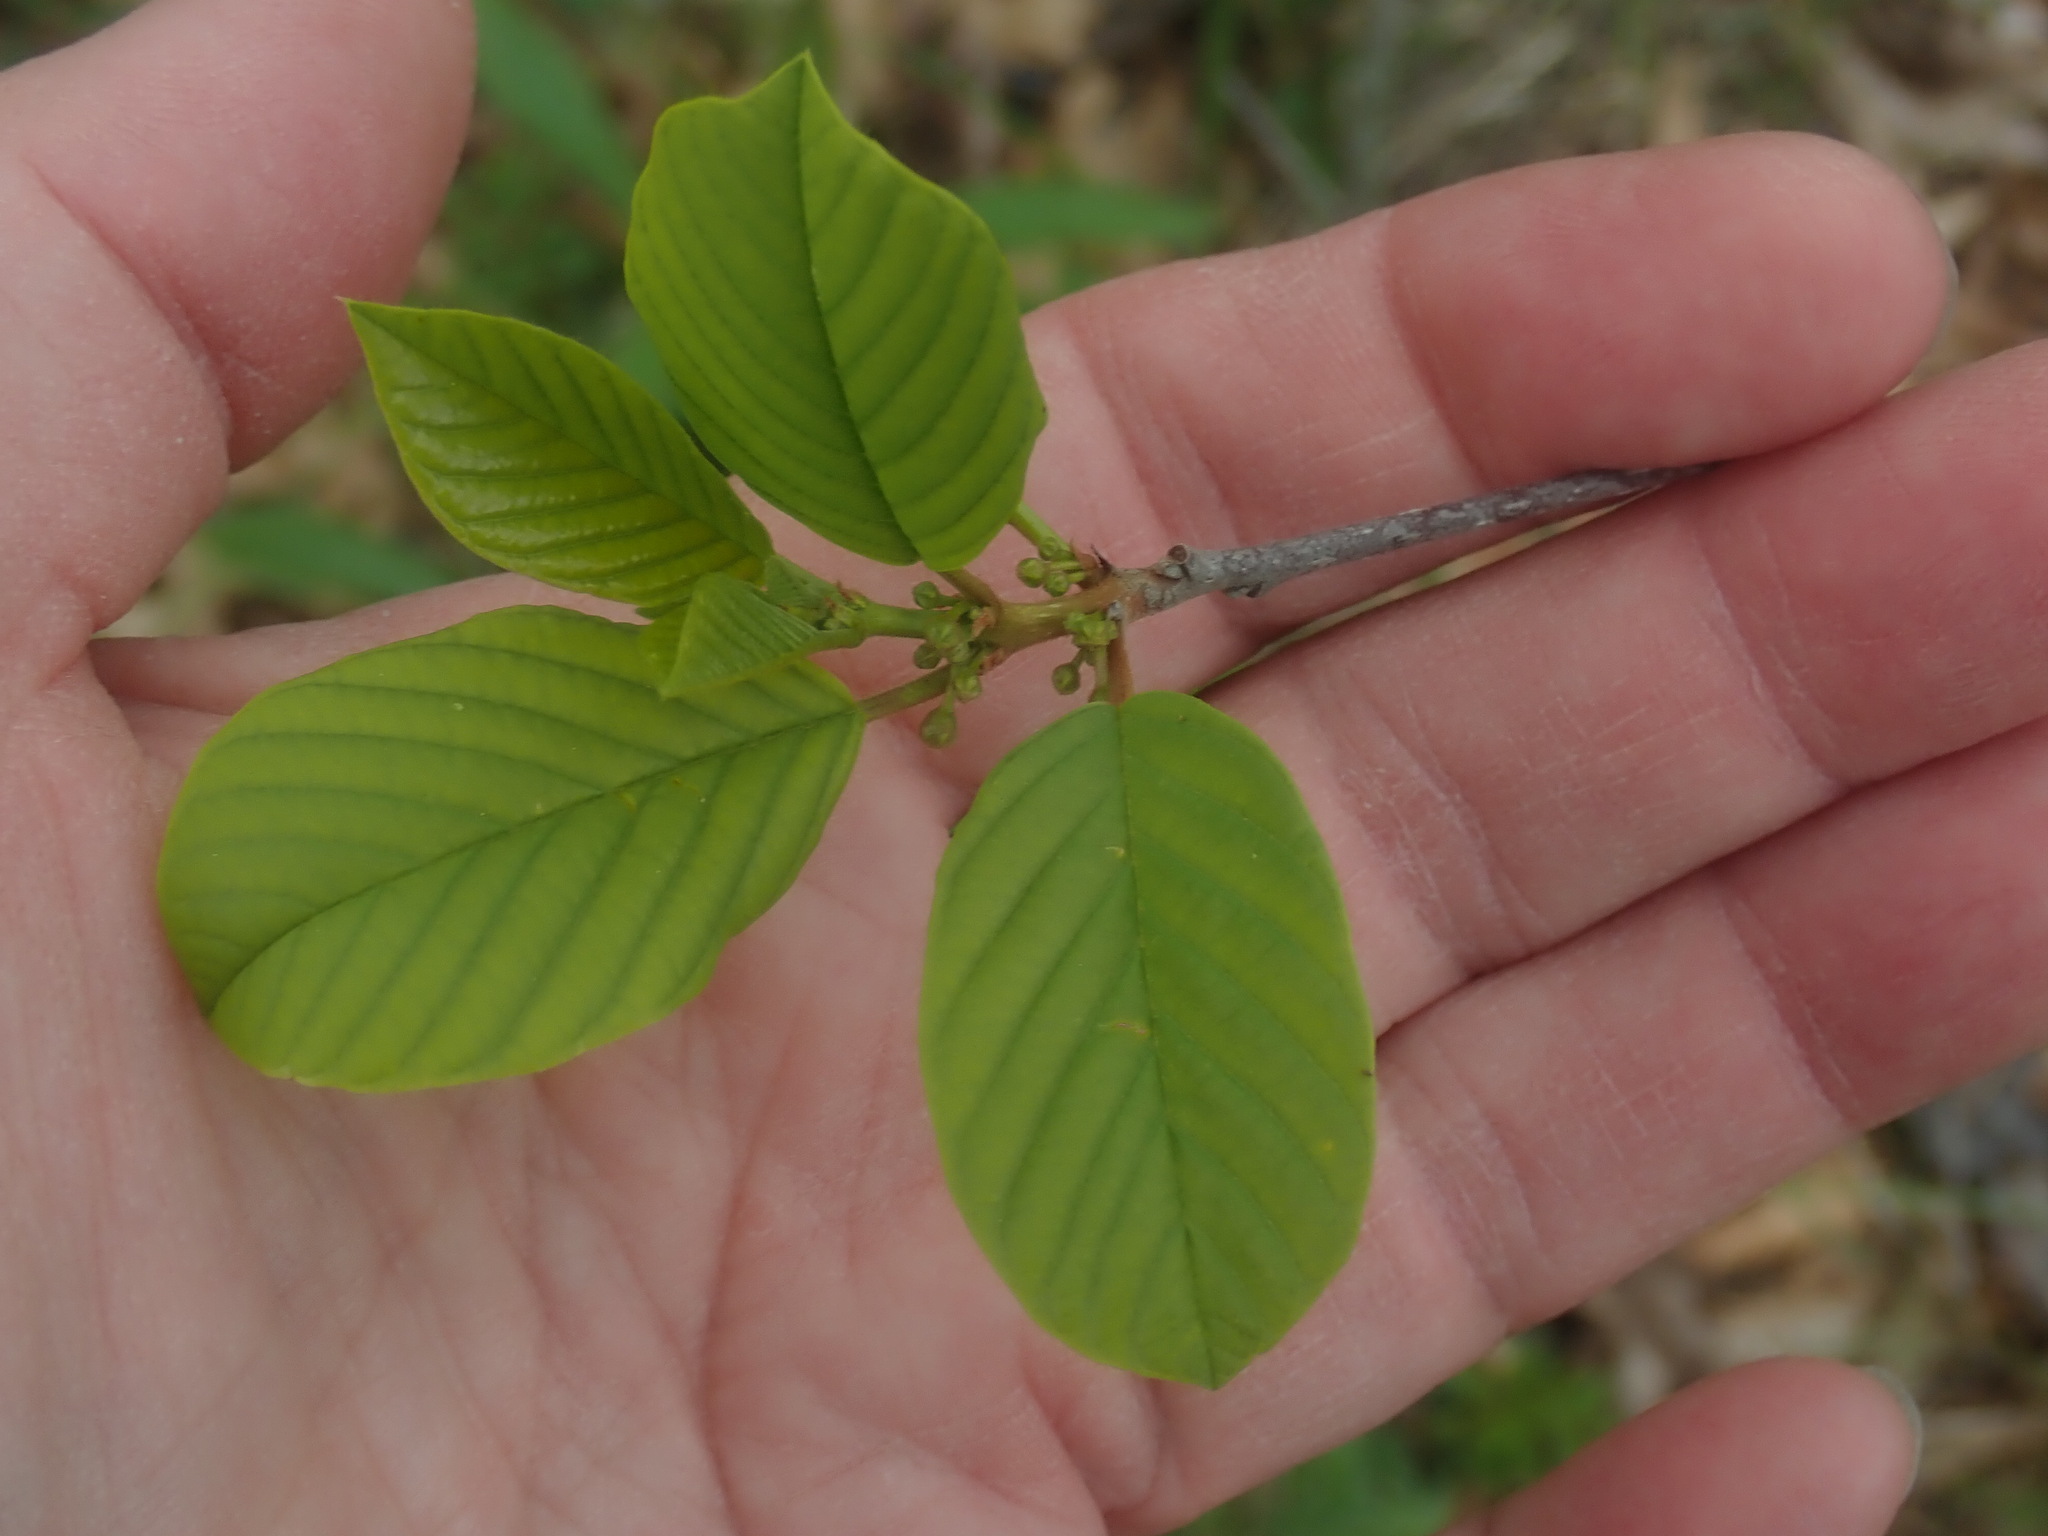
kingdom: Plantae
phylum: Tracheophyta
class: Magnoliopsida
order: Rosales
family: Rhamnaceae
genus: Frangula
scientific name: Frangula alnus
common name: Alder buckthorn
